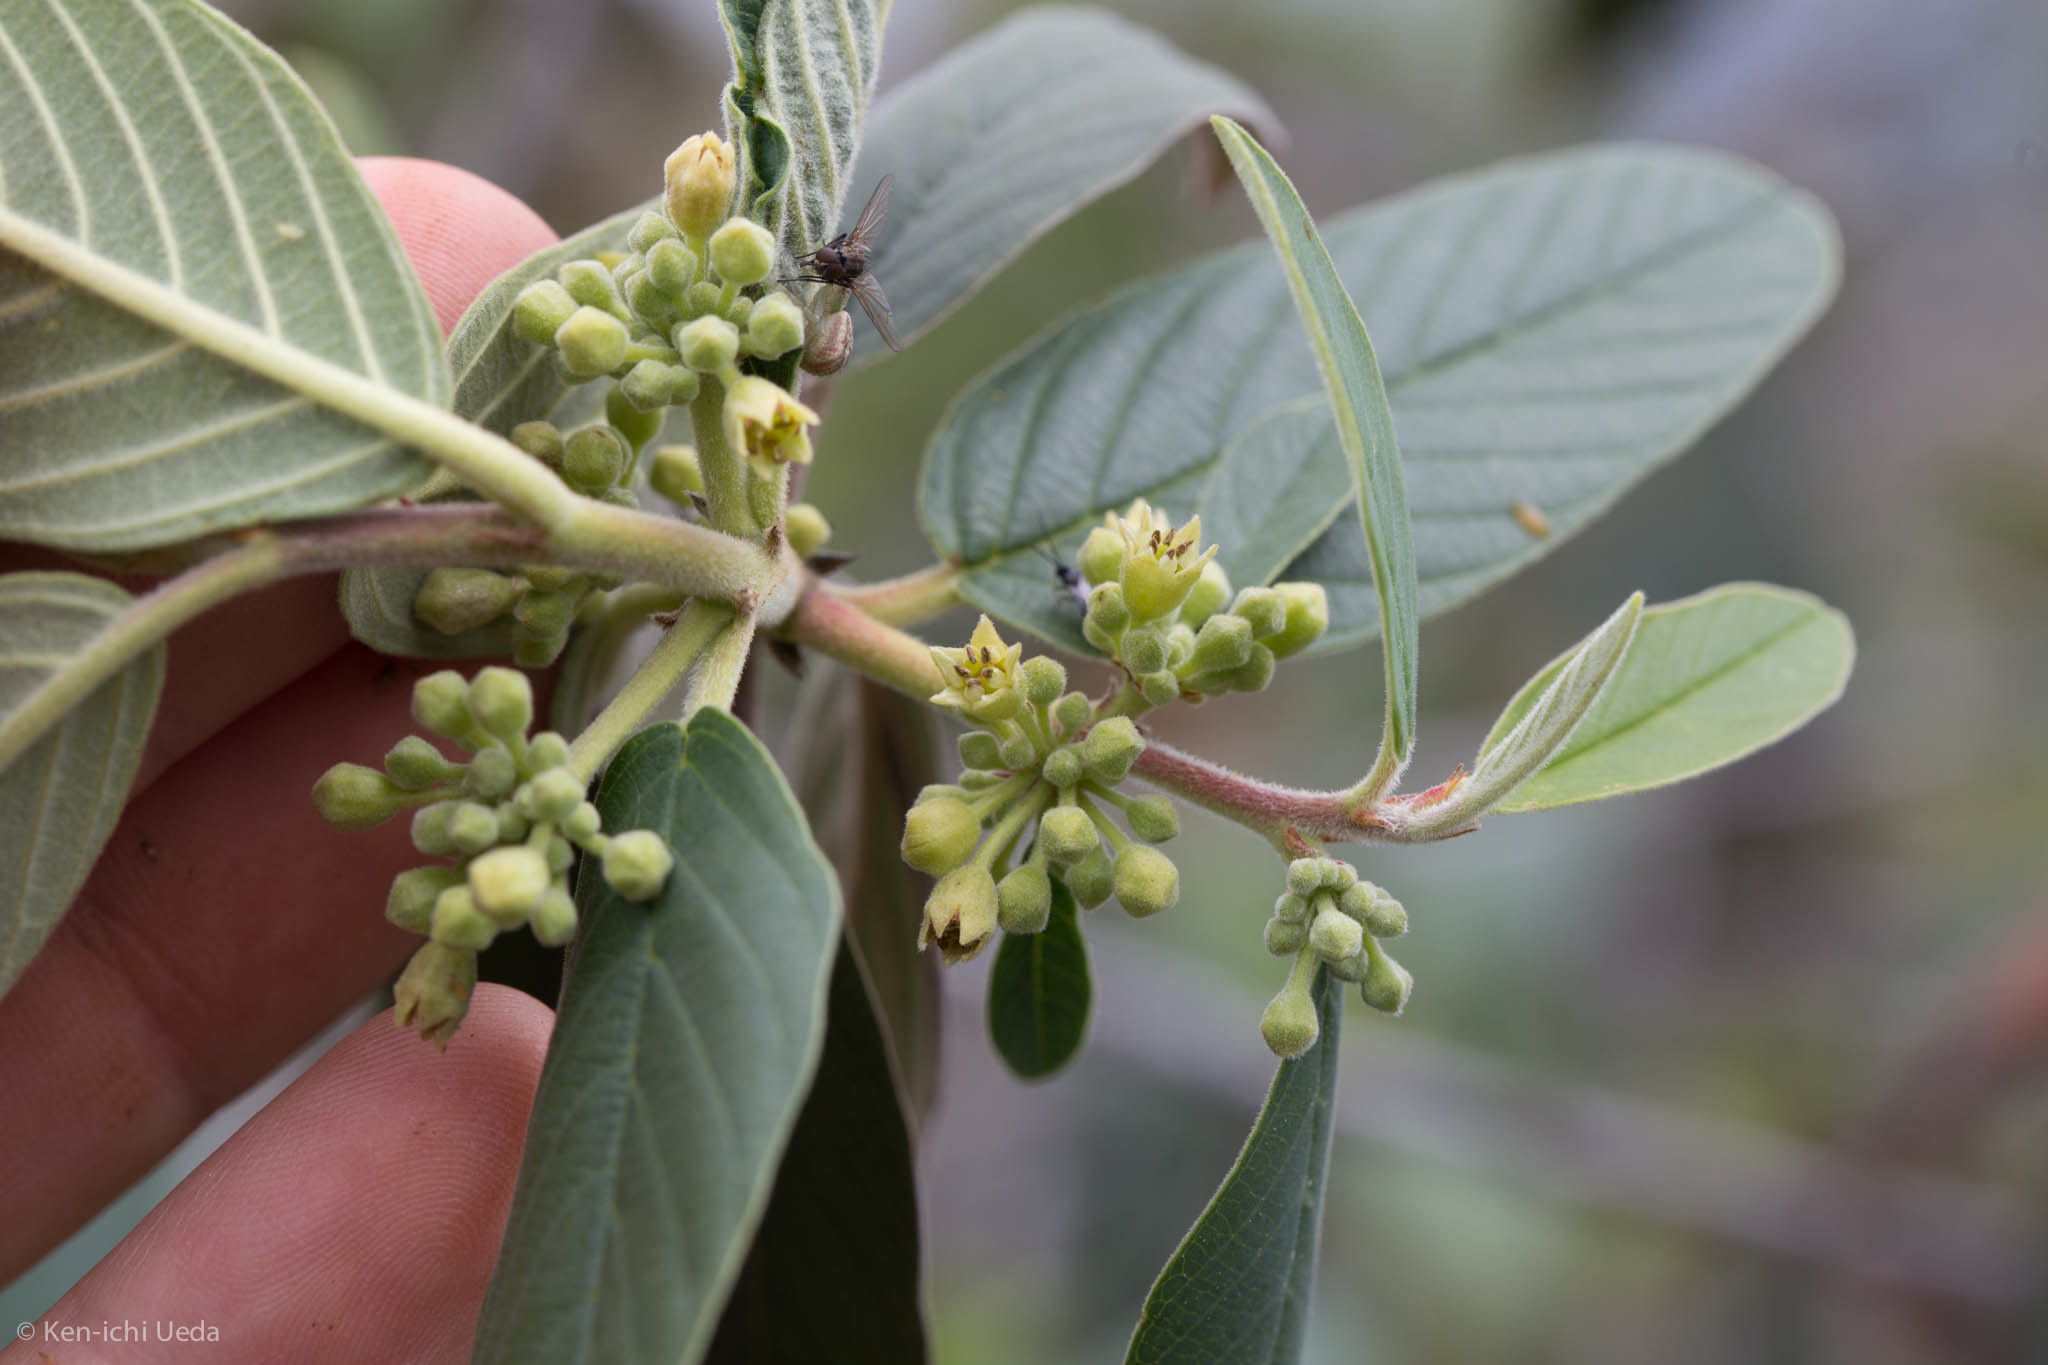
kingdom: Plantae
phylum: Tracheophyta
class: Magnoliopsida
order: Rosales
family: Rhamnaceae
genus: Frangula
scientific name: Frangula californica
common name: California buckthorn
